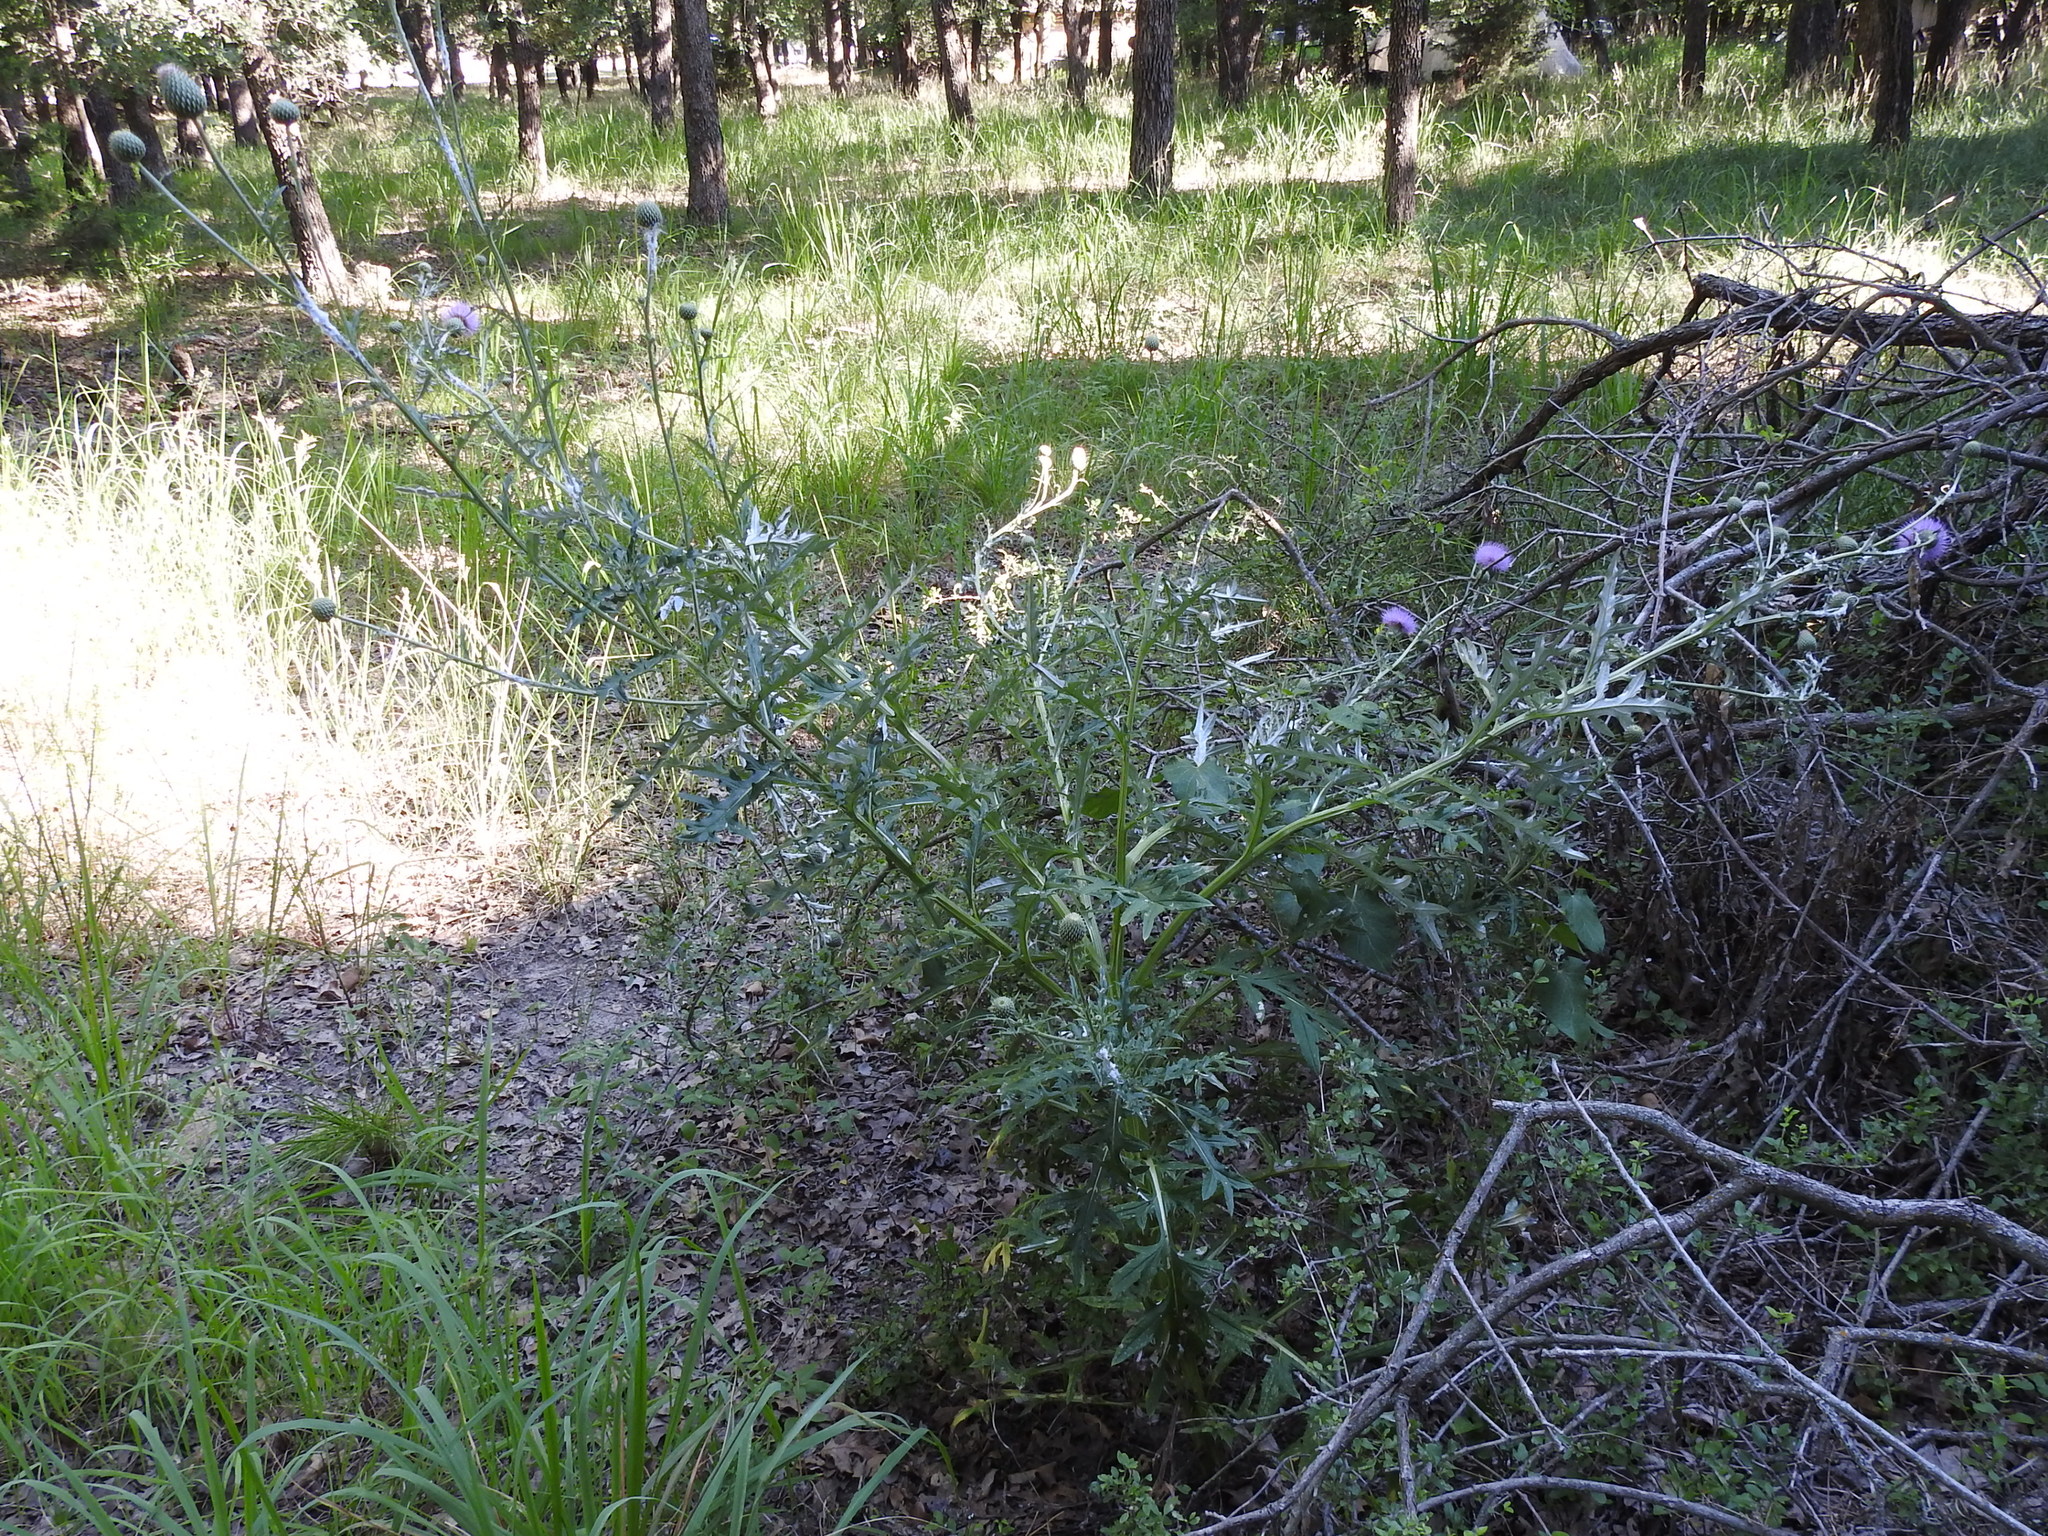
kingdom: Plantae
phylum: Tracheophyta
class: Magnoliopsida
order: Asterales
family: Asteraceae
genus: Cirsium
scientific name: Cirsium engelmannii
